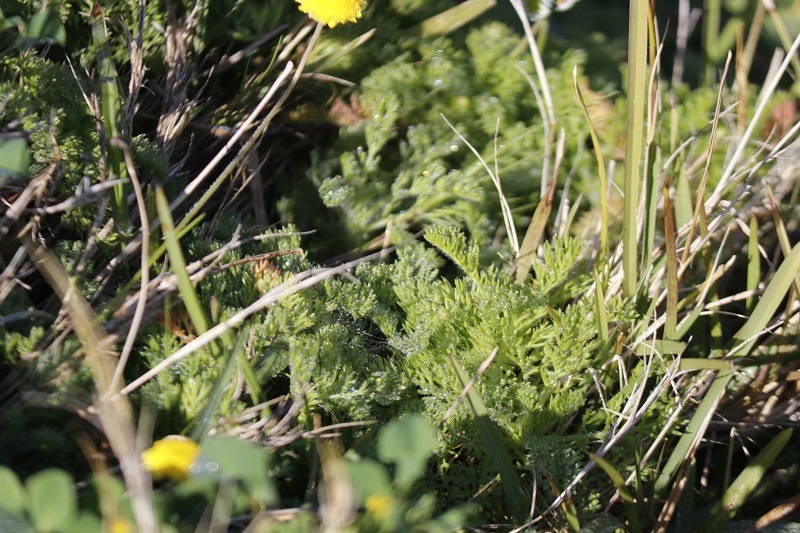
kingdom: Plantae
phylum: Tracheophyta
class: Magnoliopsida
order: Asterales
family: Asteraceae
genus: Cotula
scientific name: Cotula discolor
